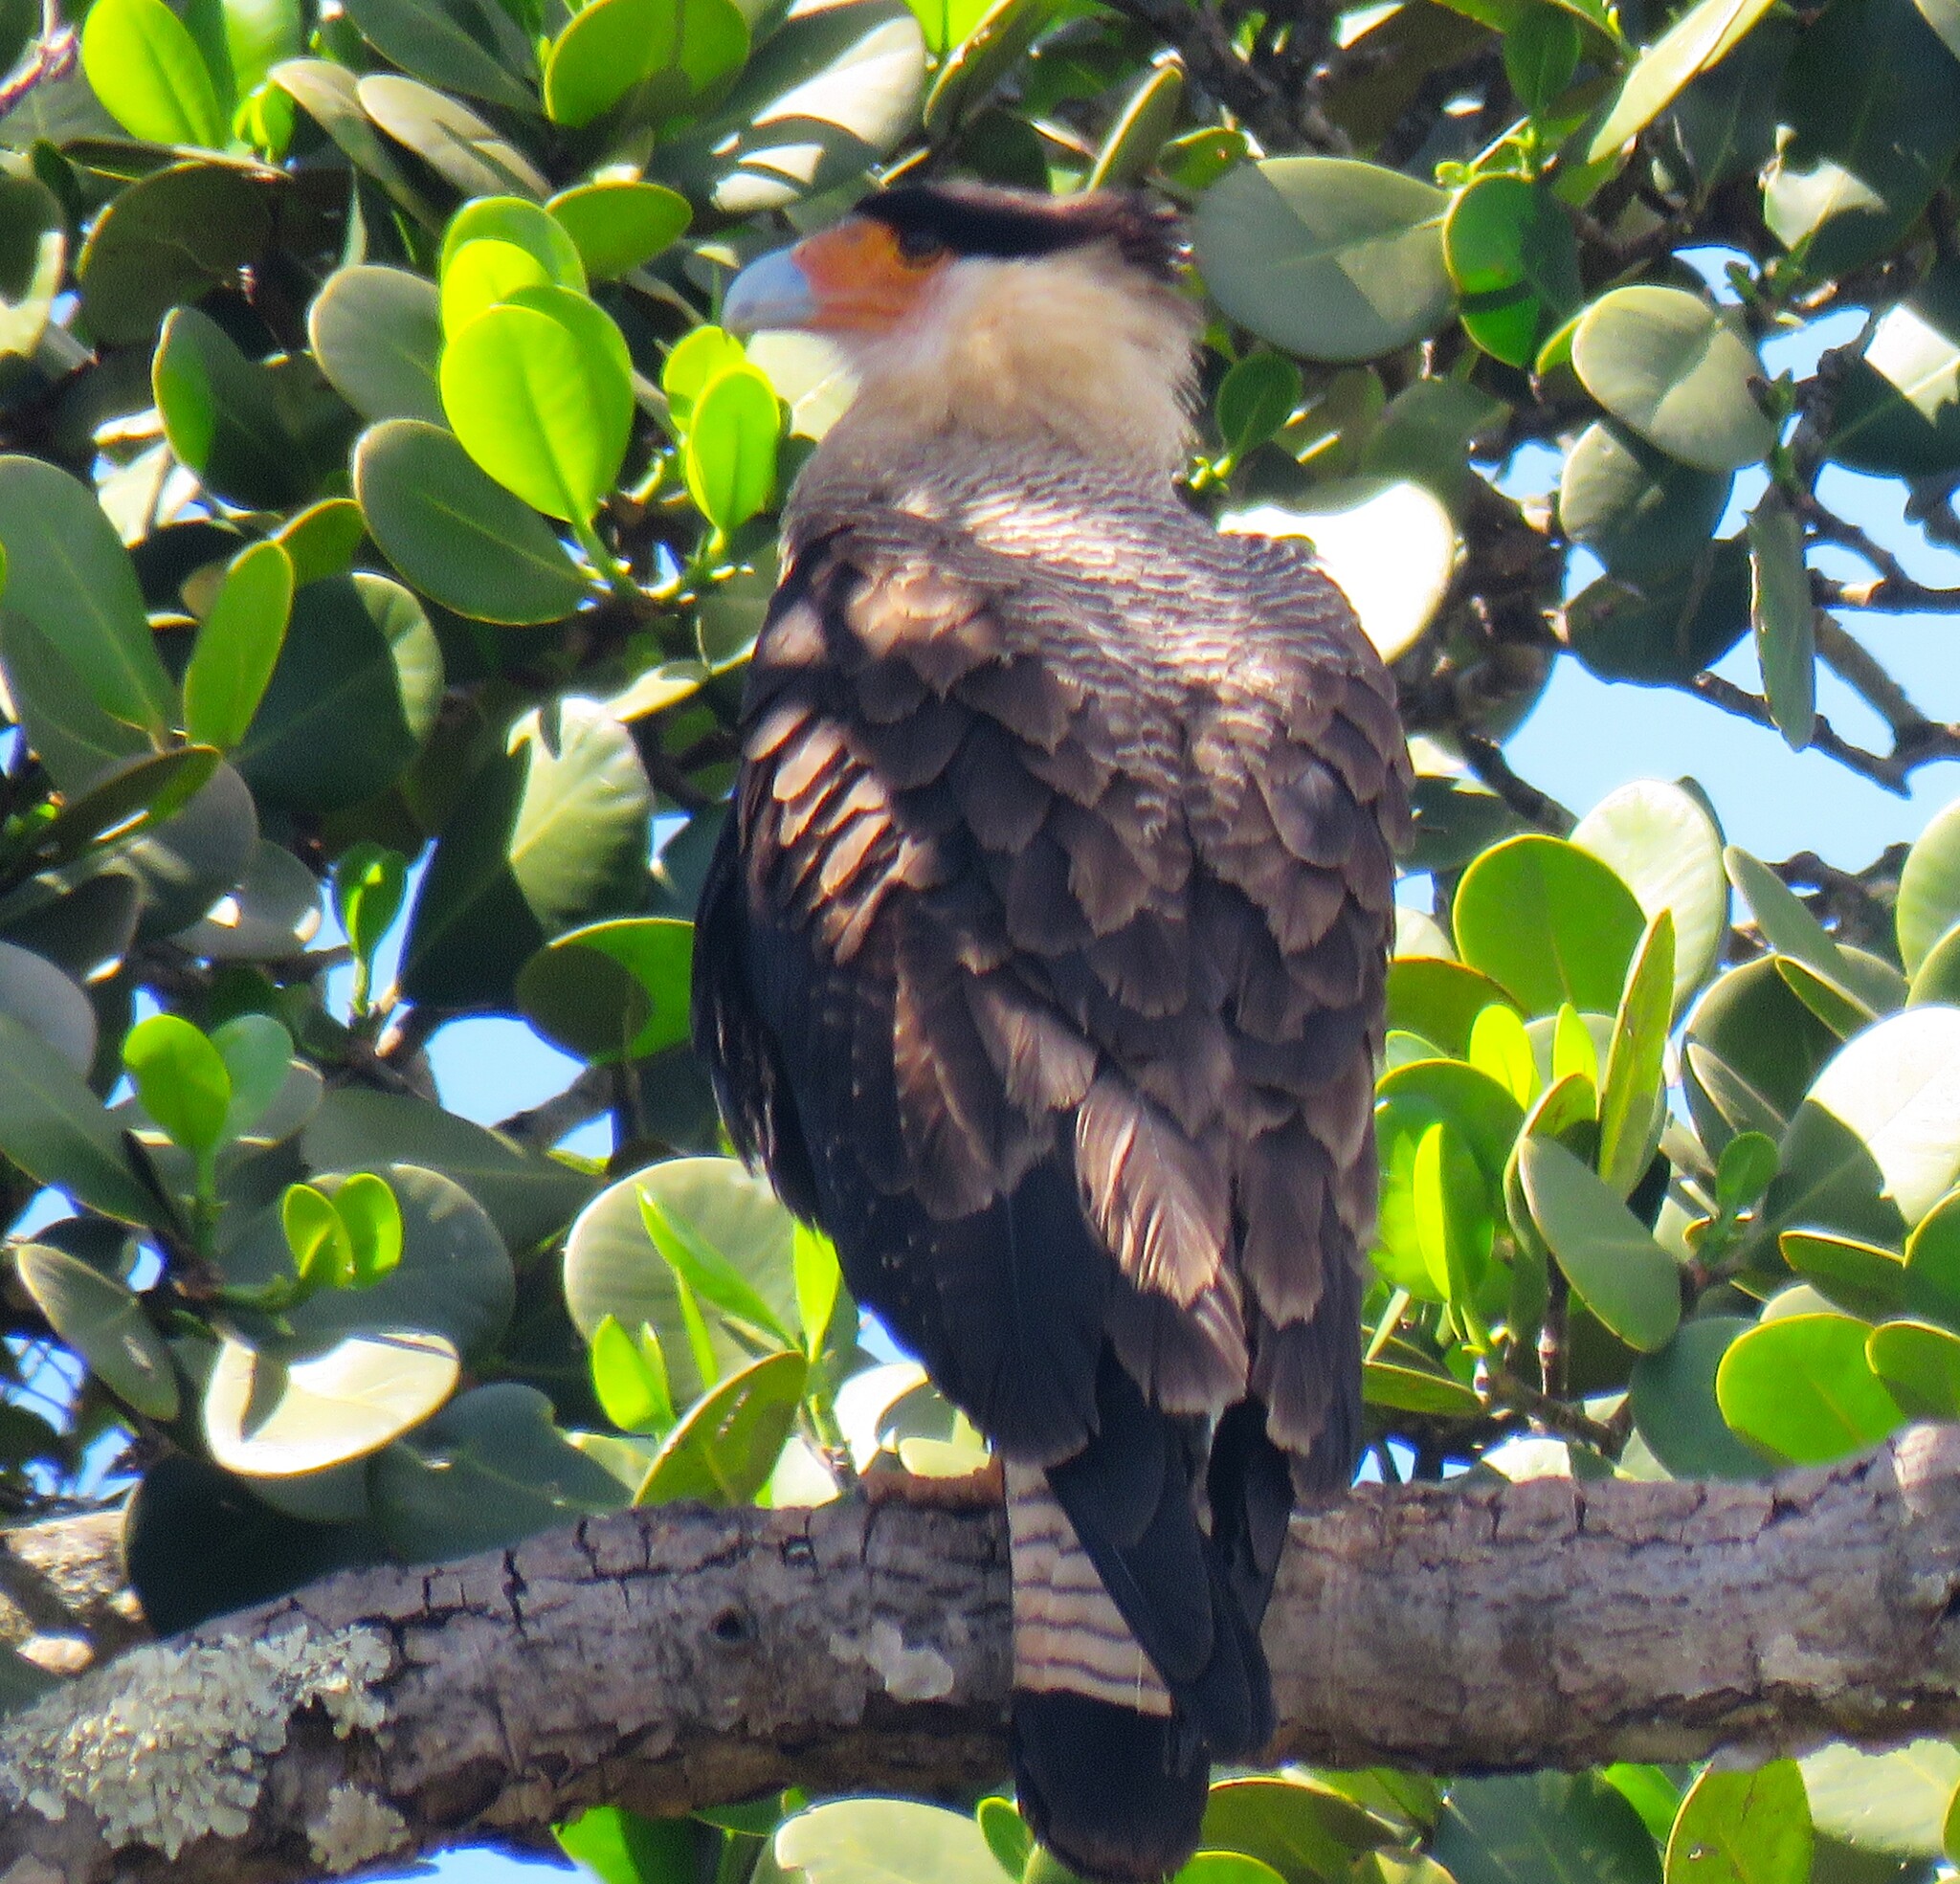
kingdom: Animalia
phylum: Chordata
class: Aves
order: Falconiformes
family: Falconidae
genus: Caracara
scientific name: Caracara plancus
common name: Southern caracara
